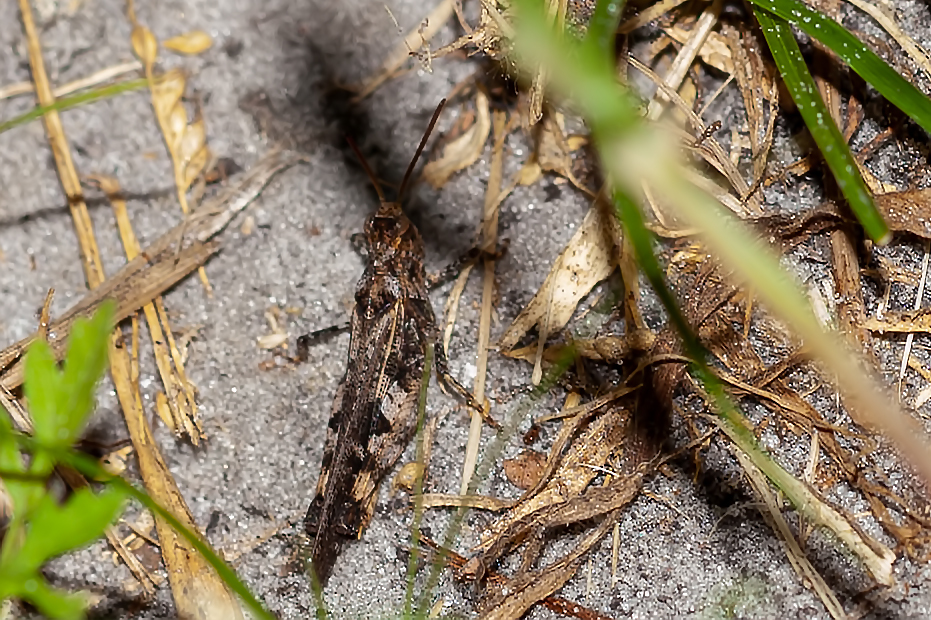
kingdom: Animalia
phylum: Arthropoda
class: Insecta
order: Orthoptera
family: Acrididae
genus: Chortophaga
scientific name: Chortophaga australior
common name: Southern green-striped grasshopper
